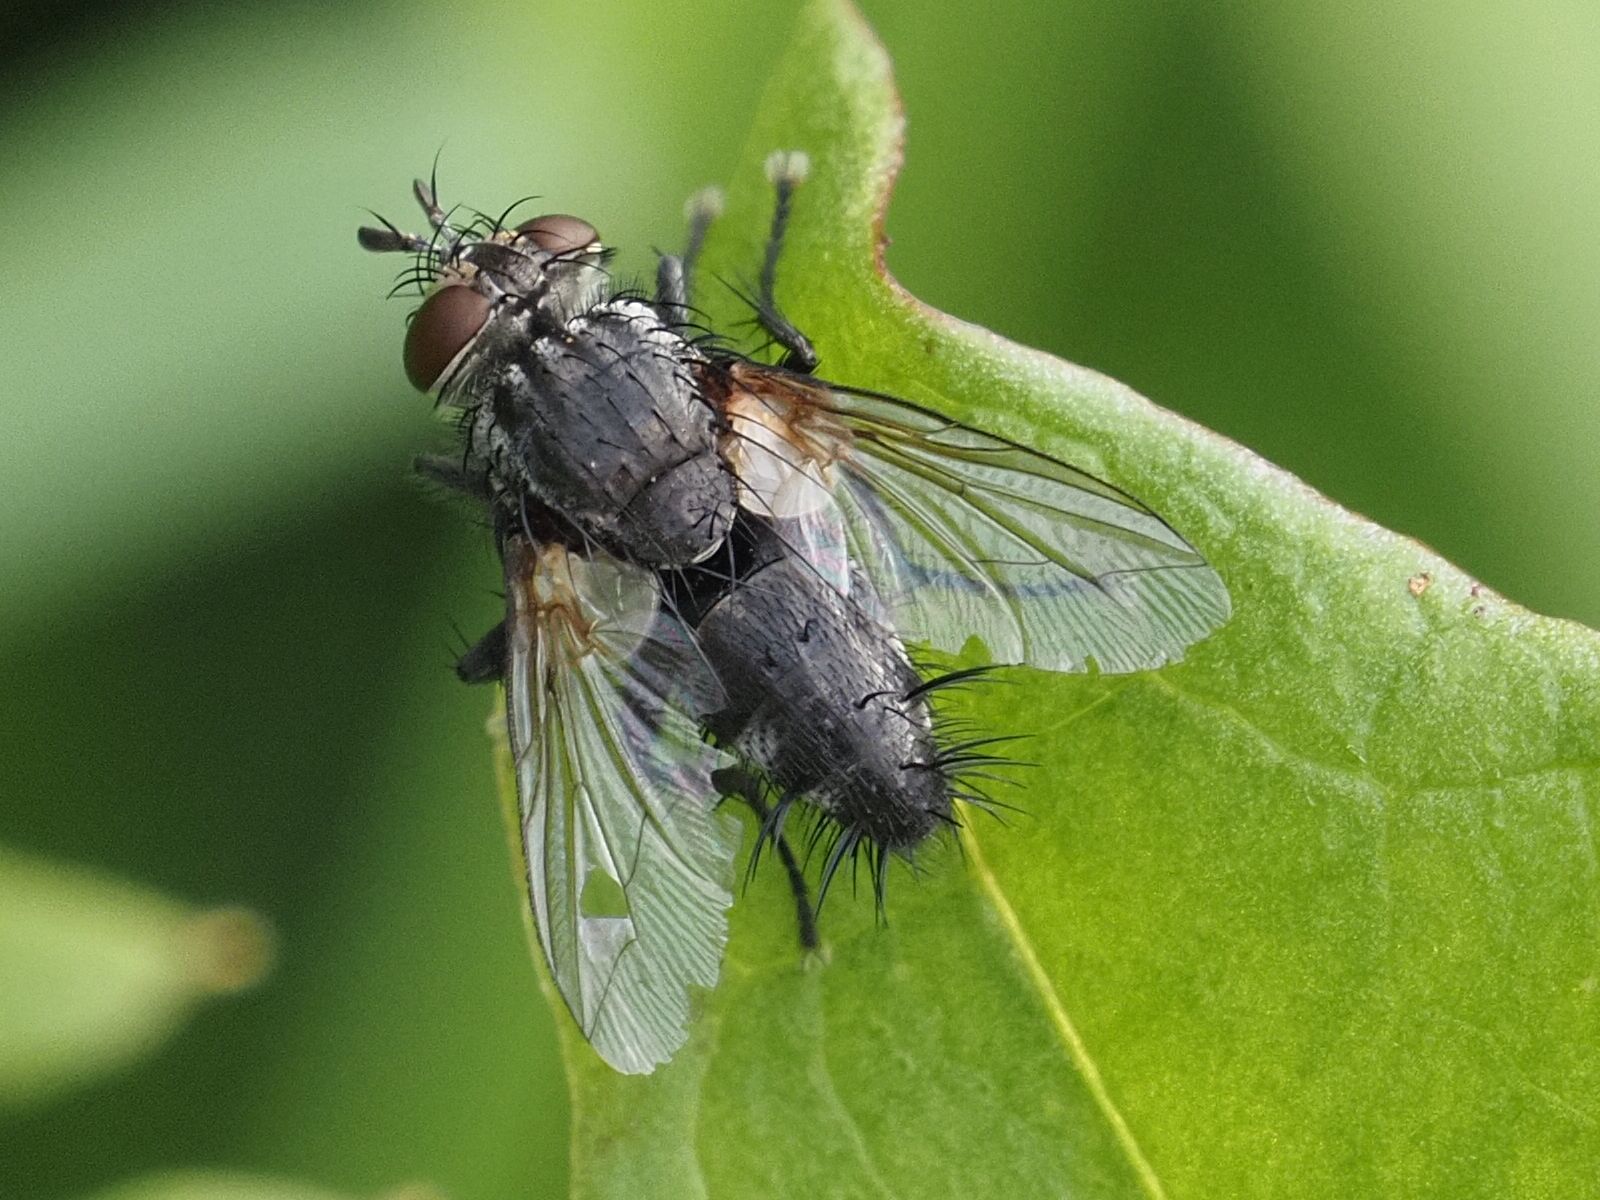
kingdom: Animalia
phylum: Arthropoda
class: Insecta
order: Diptera
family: Tachinidae
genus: Voria
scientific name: Voria ruralis
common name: Parasitic fly
